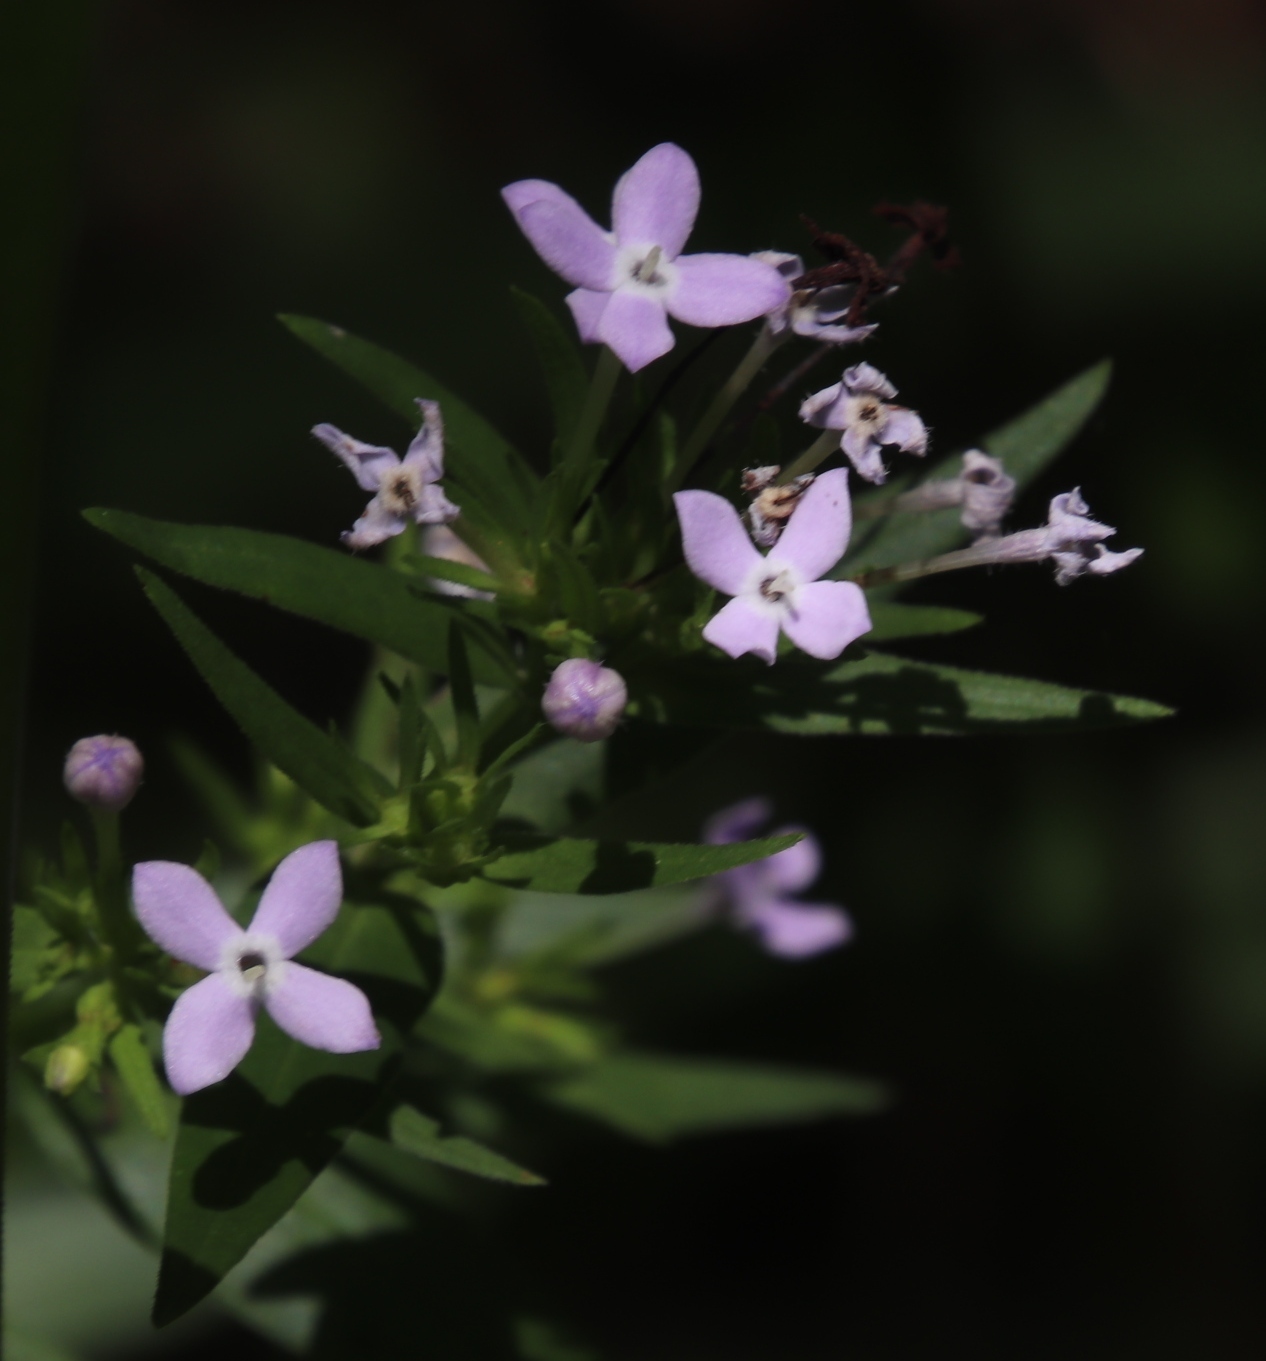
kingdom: Plantae
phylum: Tracheophyta
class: Magnoliopsida
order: Gentianales
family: Rubiaceae
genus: Conostomium
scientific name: Conostomium natalense
